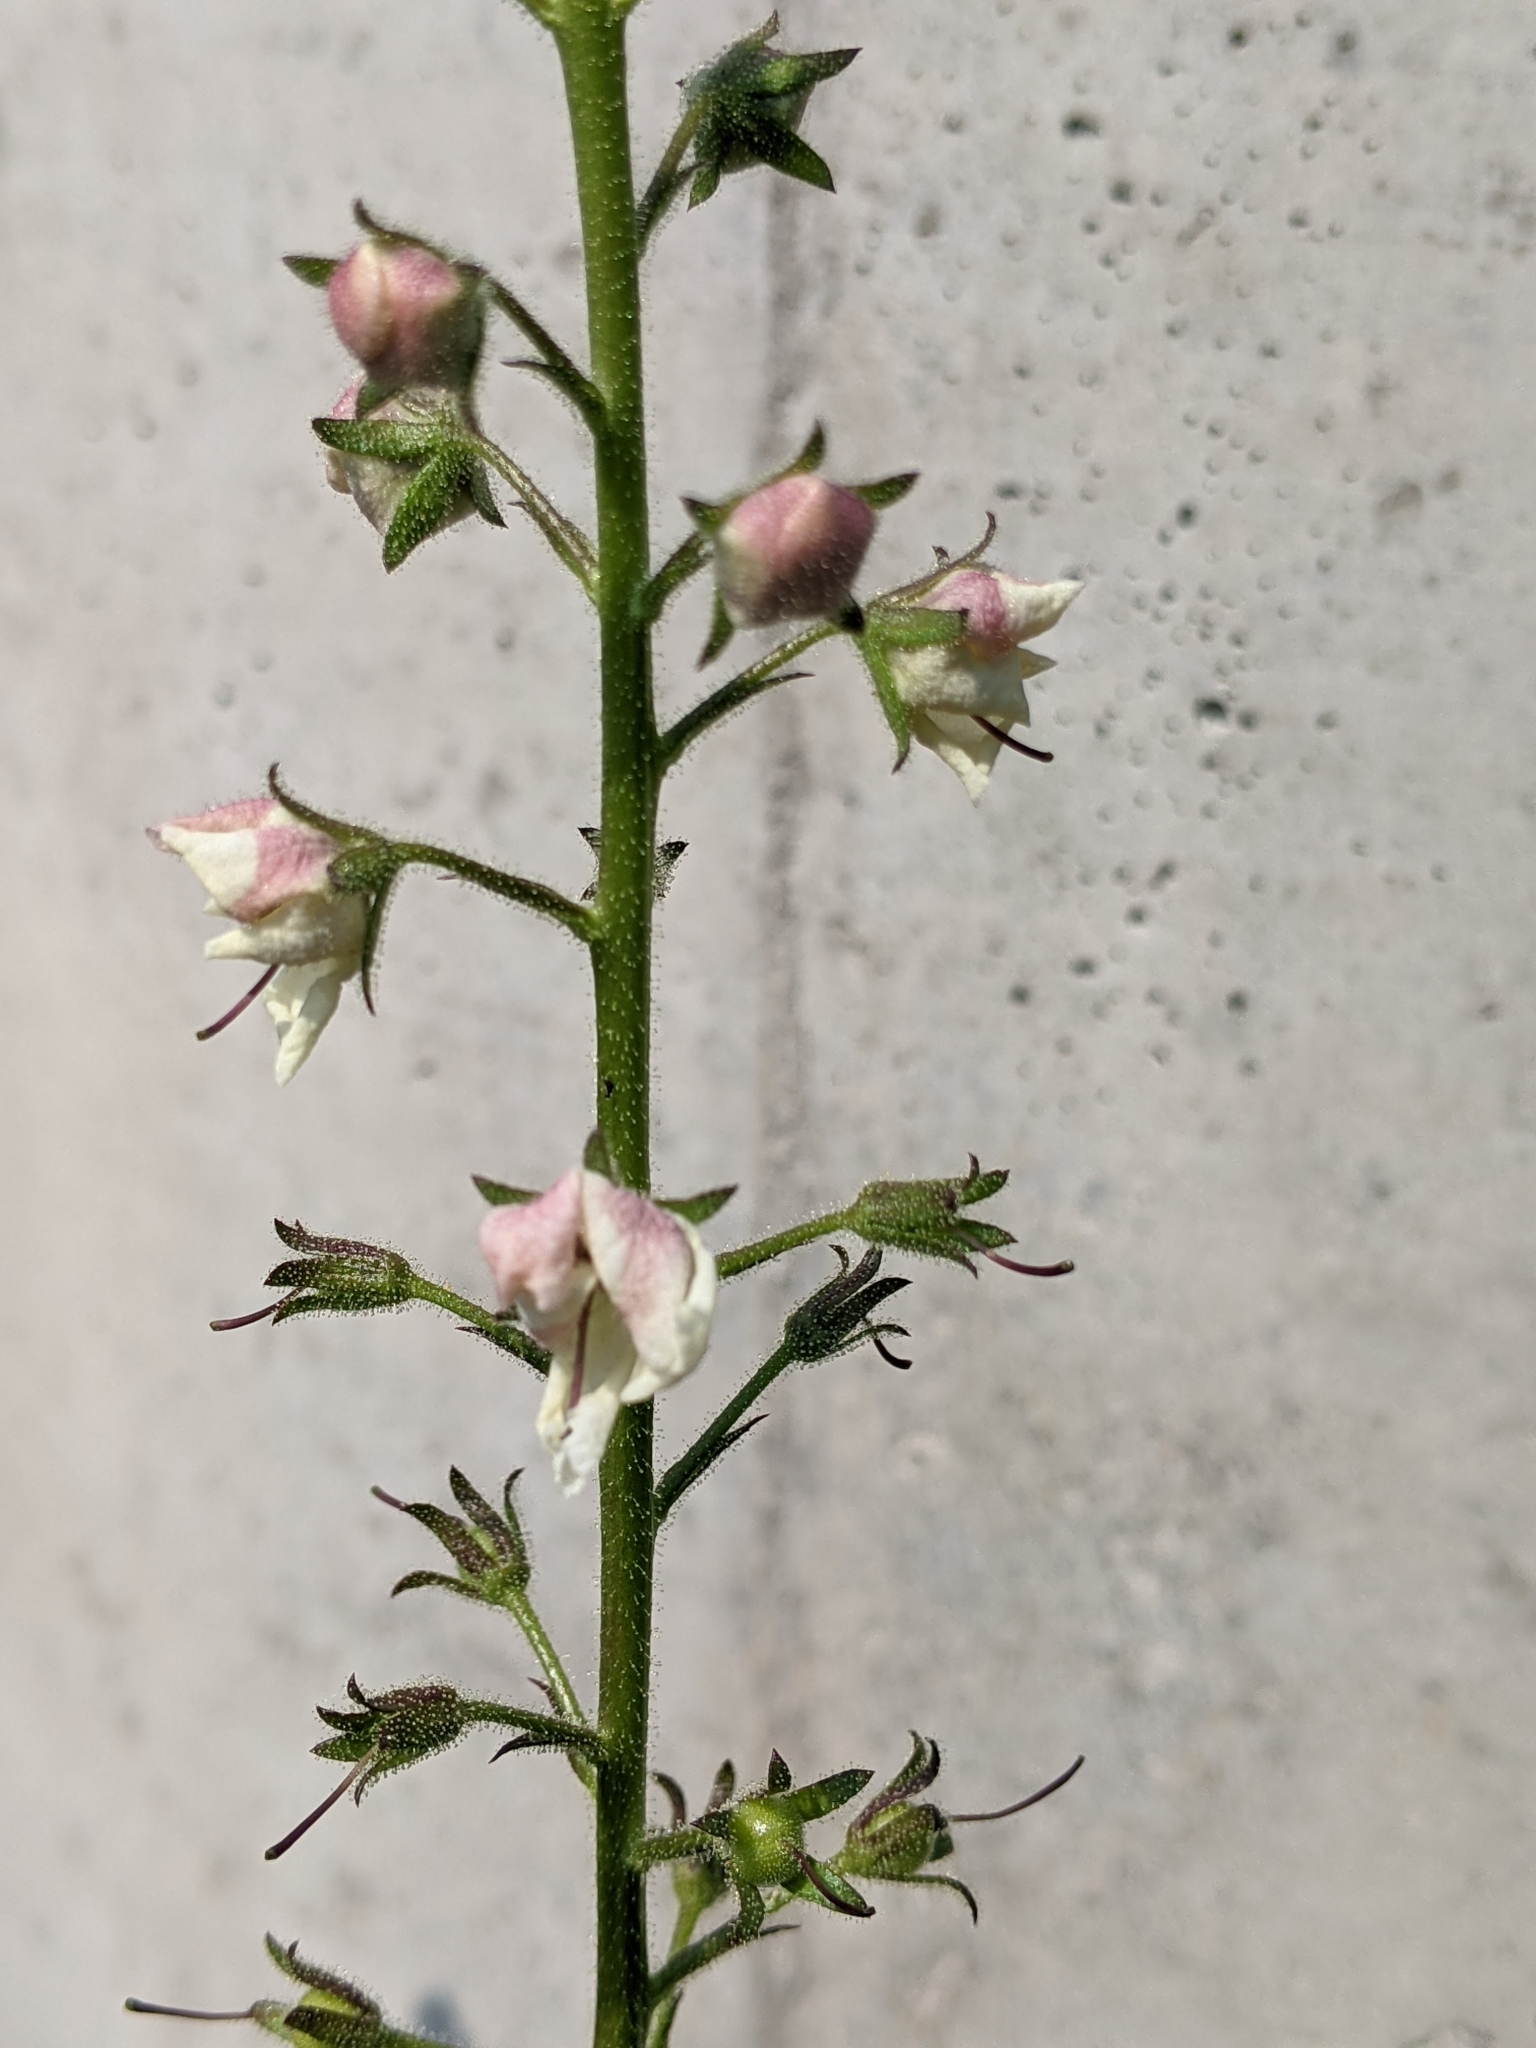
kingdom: Plantae
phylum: Tracheophyta
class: Magnoliopsida
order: Lamiales
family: Scrophulariaceae
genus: Verbascum
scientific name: Verbascum blattaria
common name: Moth mullein
